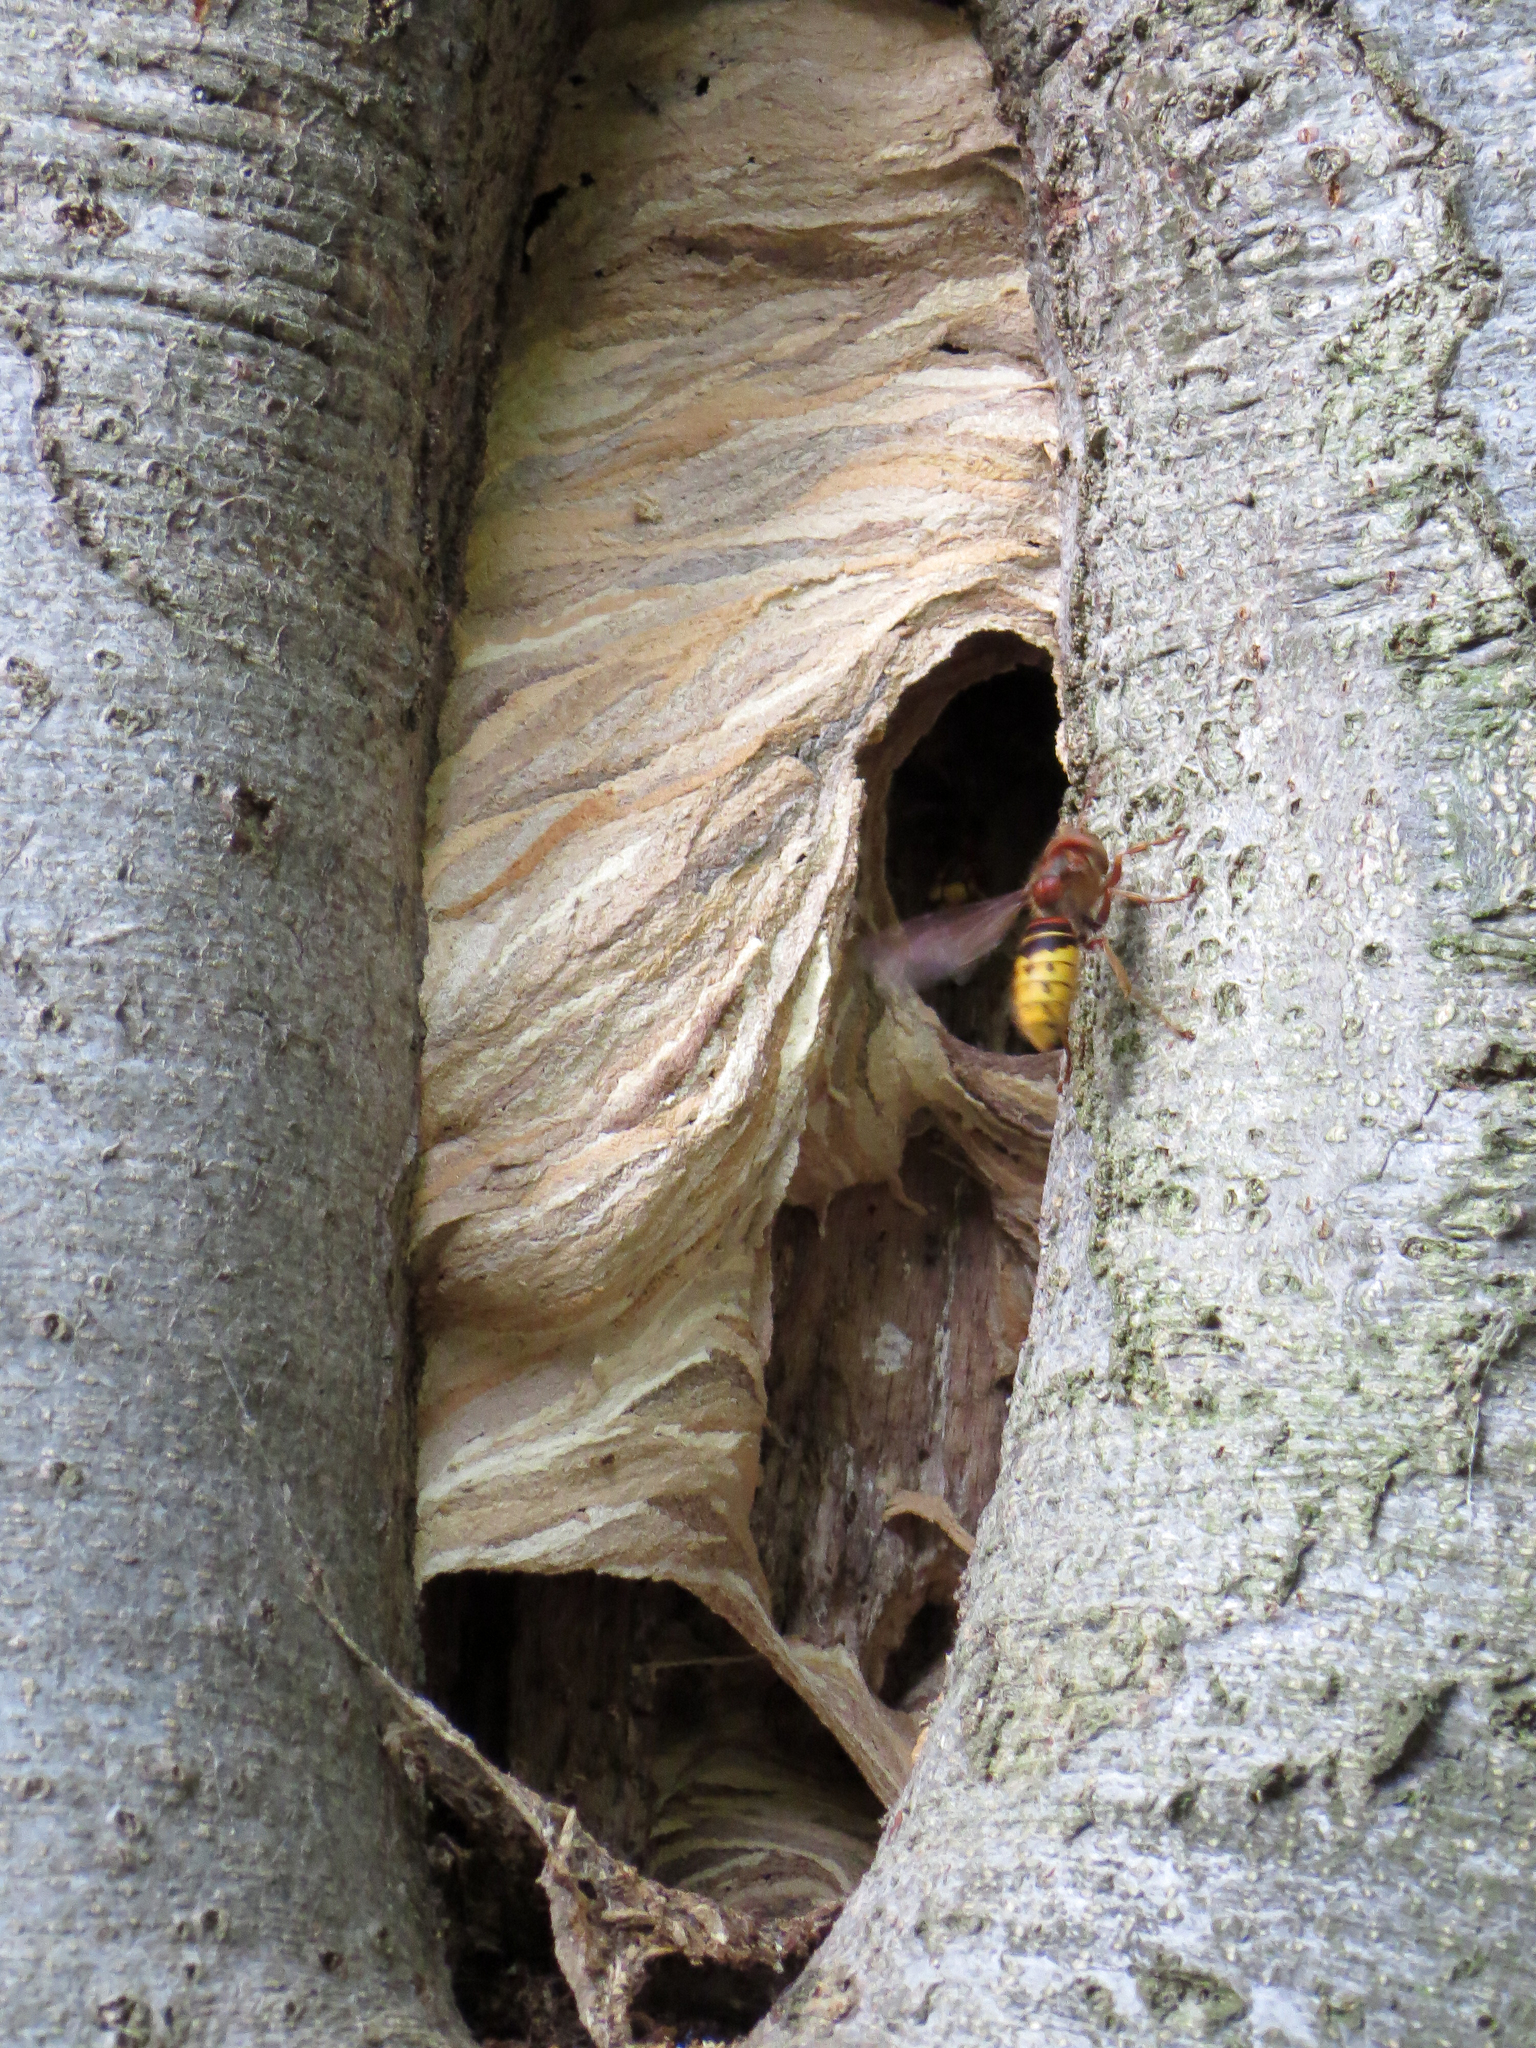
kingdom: Animalia
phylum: Arthropoda
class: Insecta
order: Hymenoptera
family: Vespidae
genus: Vespa
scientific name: Vespa crabro
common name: Hornet
